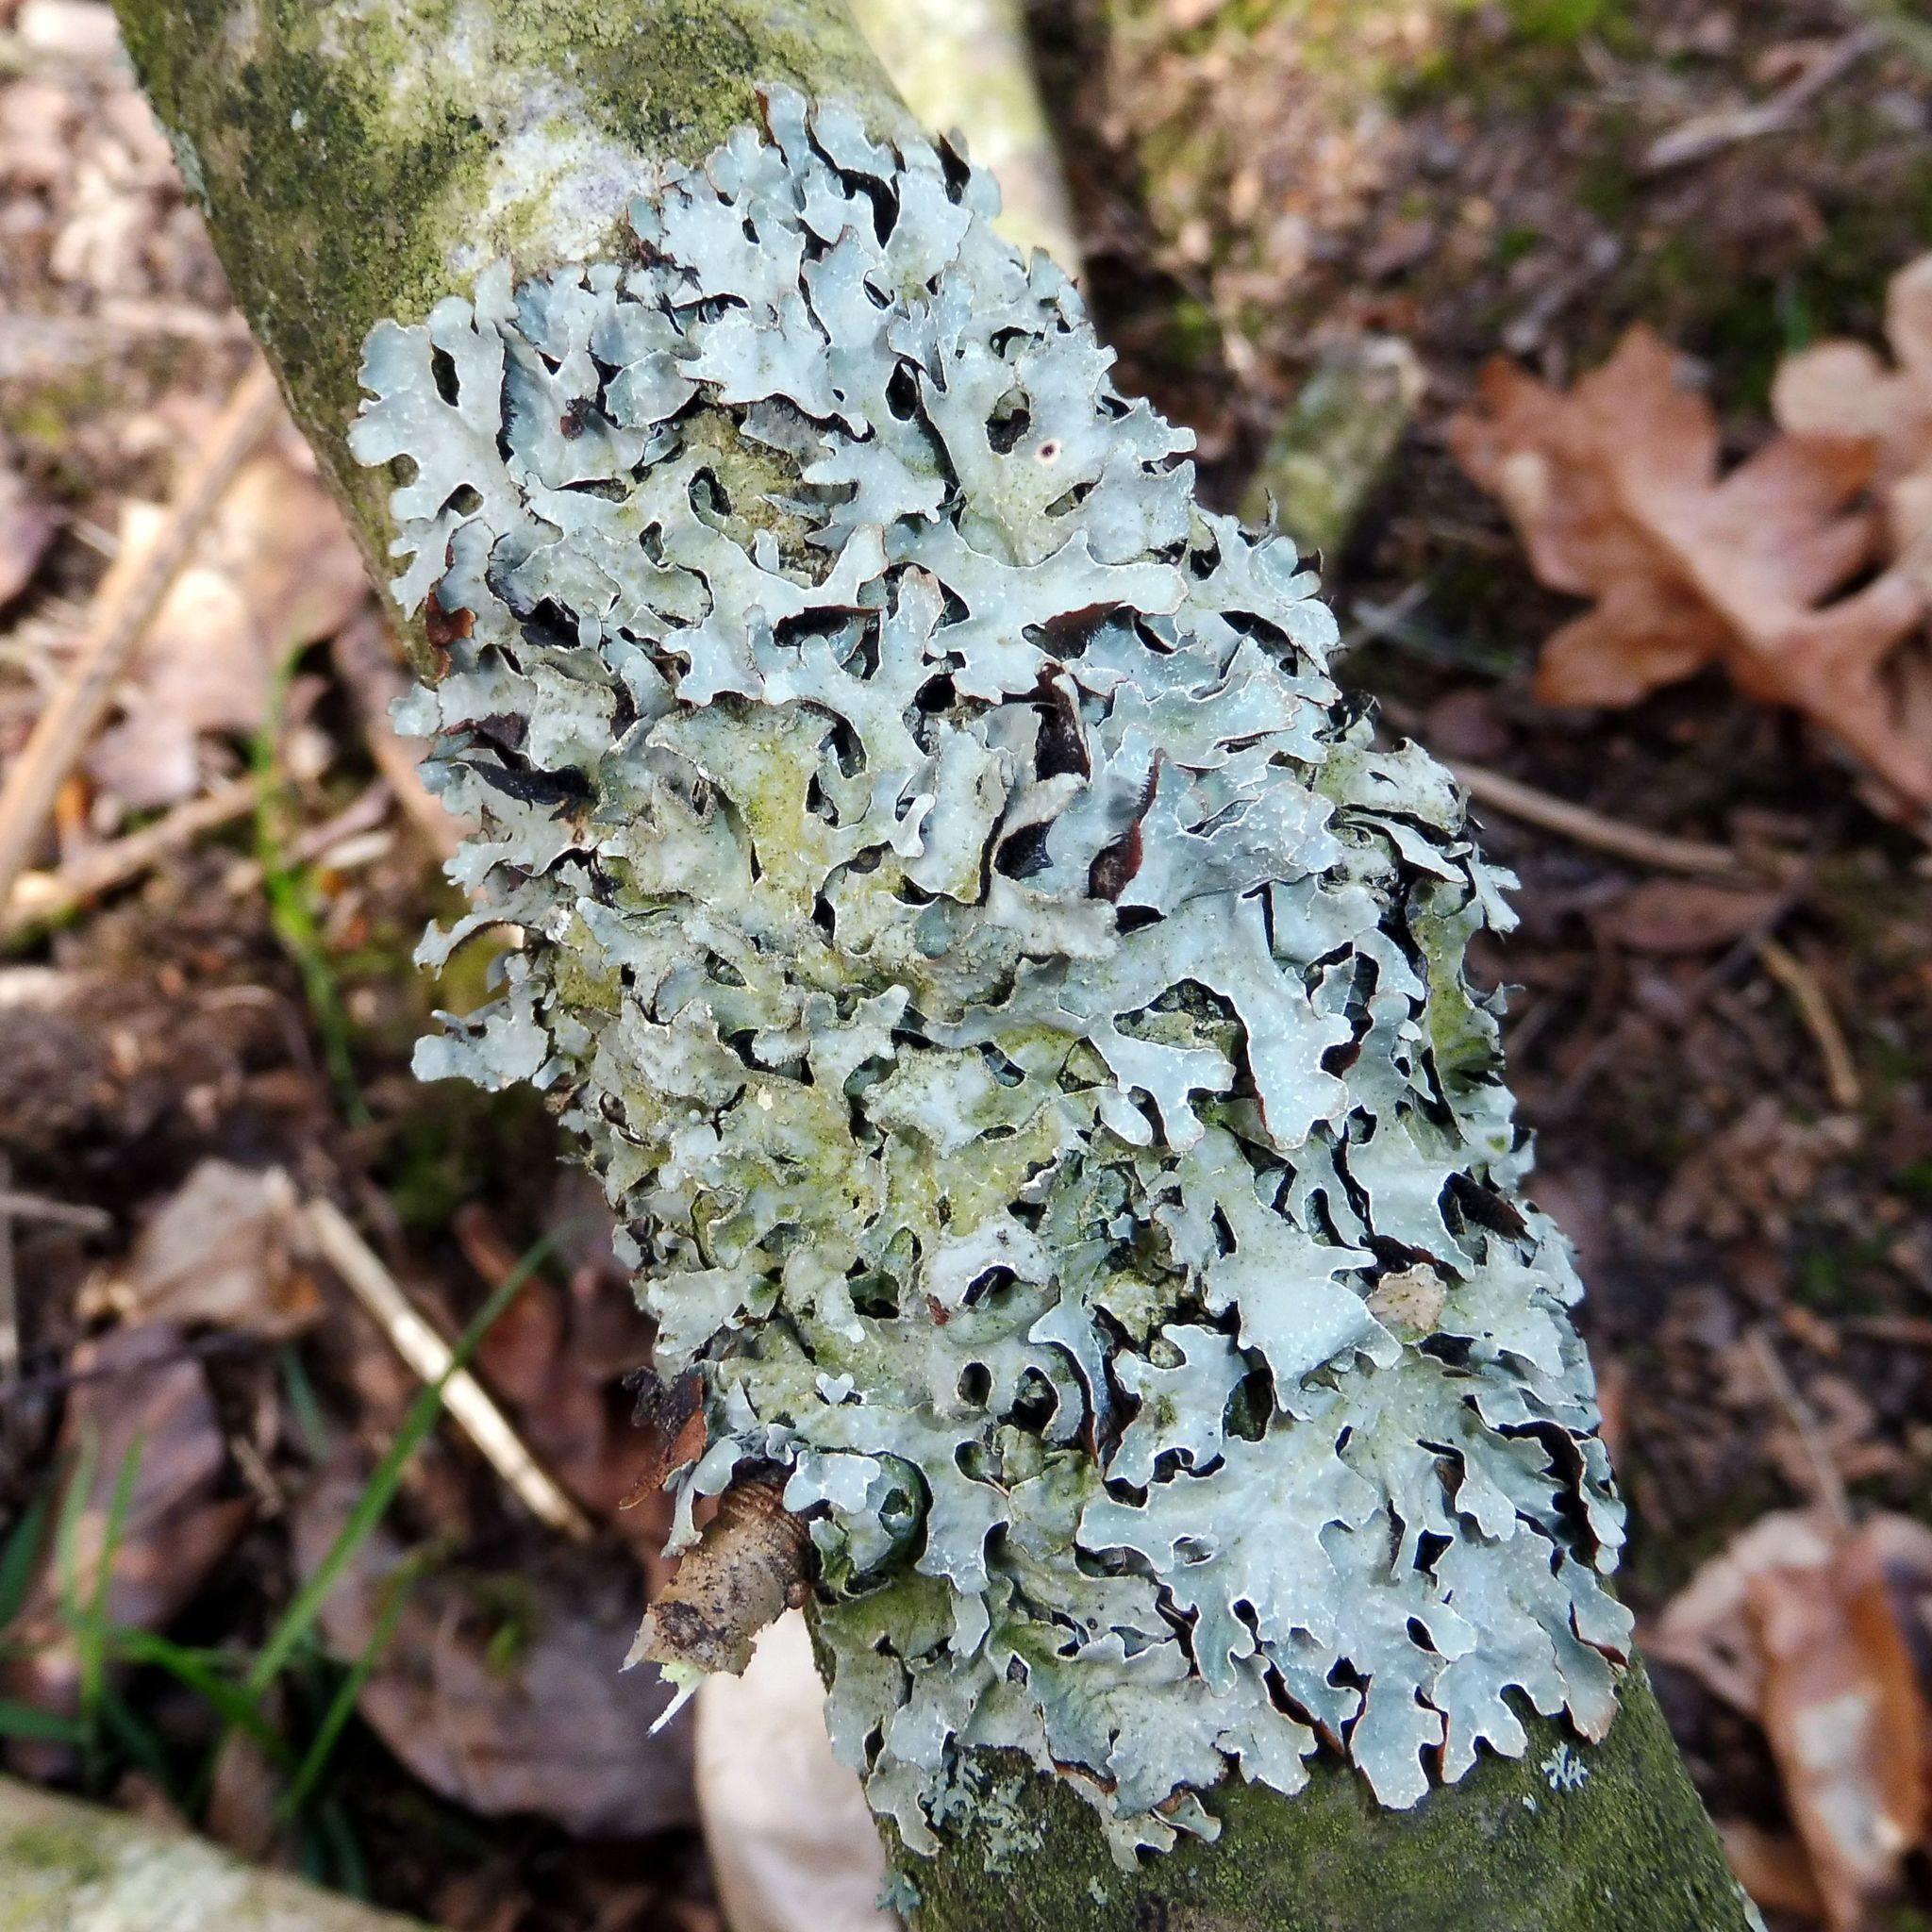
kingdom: Fungi
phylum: Ascomycota
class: Lecanoromycetes
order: Lecanorales
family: Parmeliaceae
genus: Parmelia
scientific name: Parmelia sulcata
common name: Netted shield lichen
